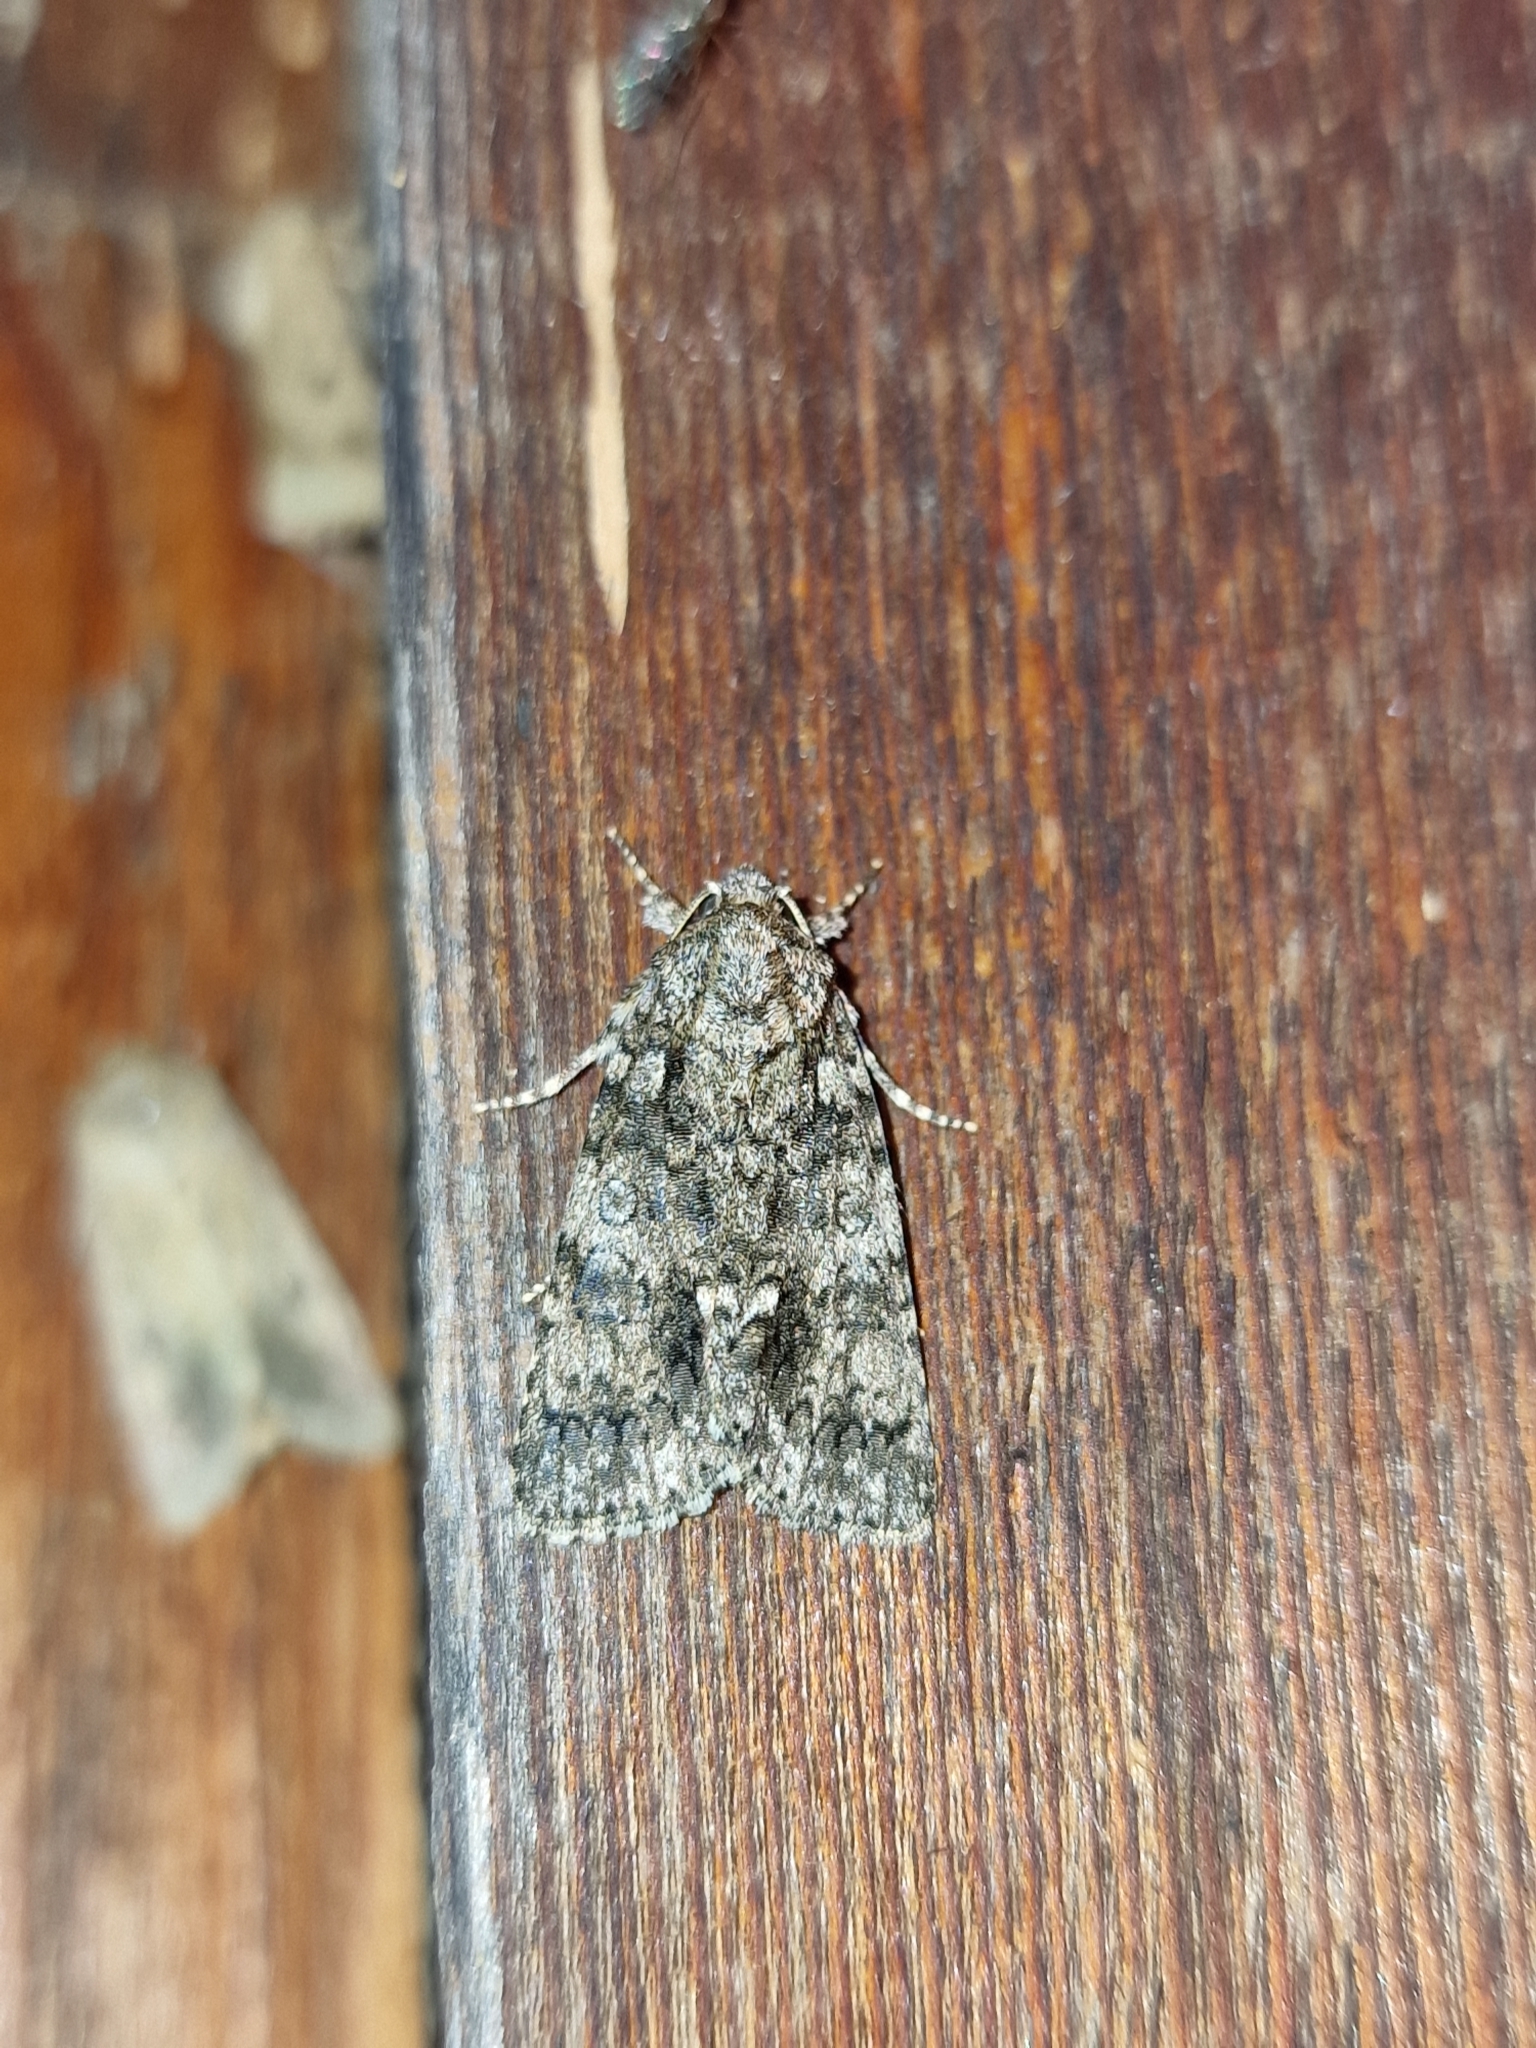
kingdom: Animalia
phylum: Arthropoda
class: Insecta
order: Lepidoptera
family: Noctuidae
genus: Acronicta
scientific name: Acronicta rumicis
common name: Knot grass
